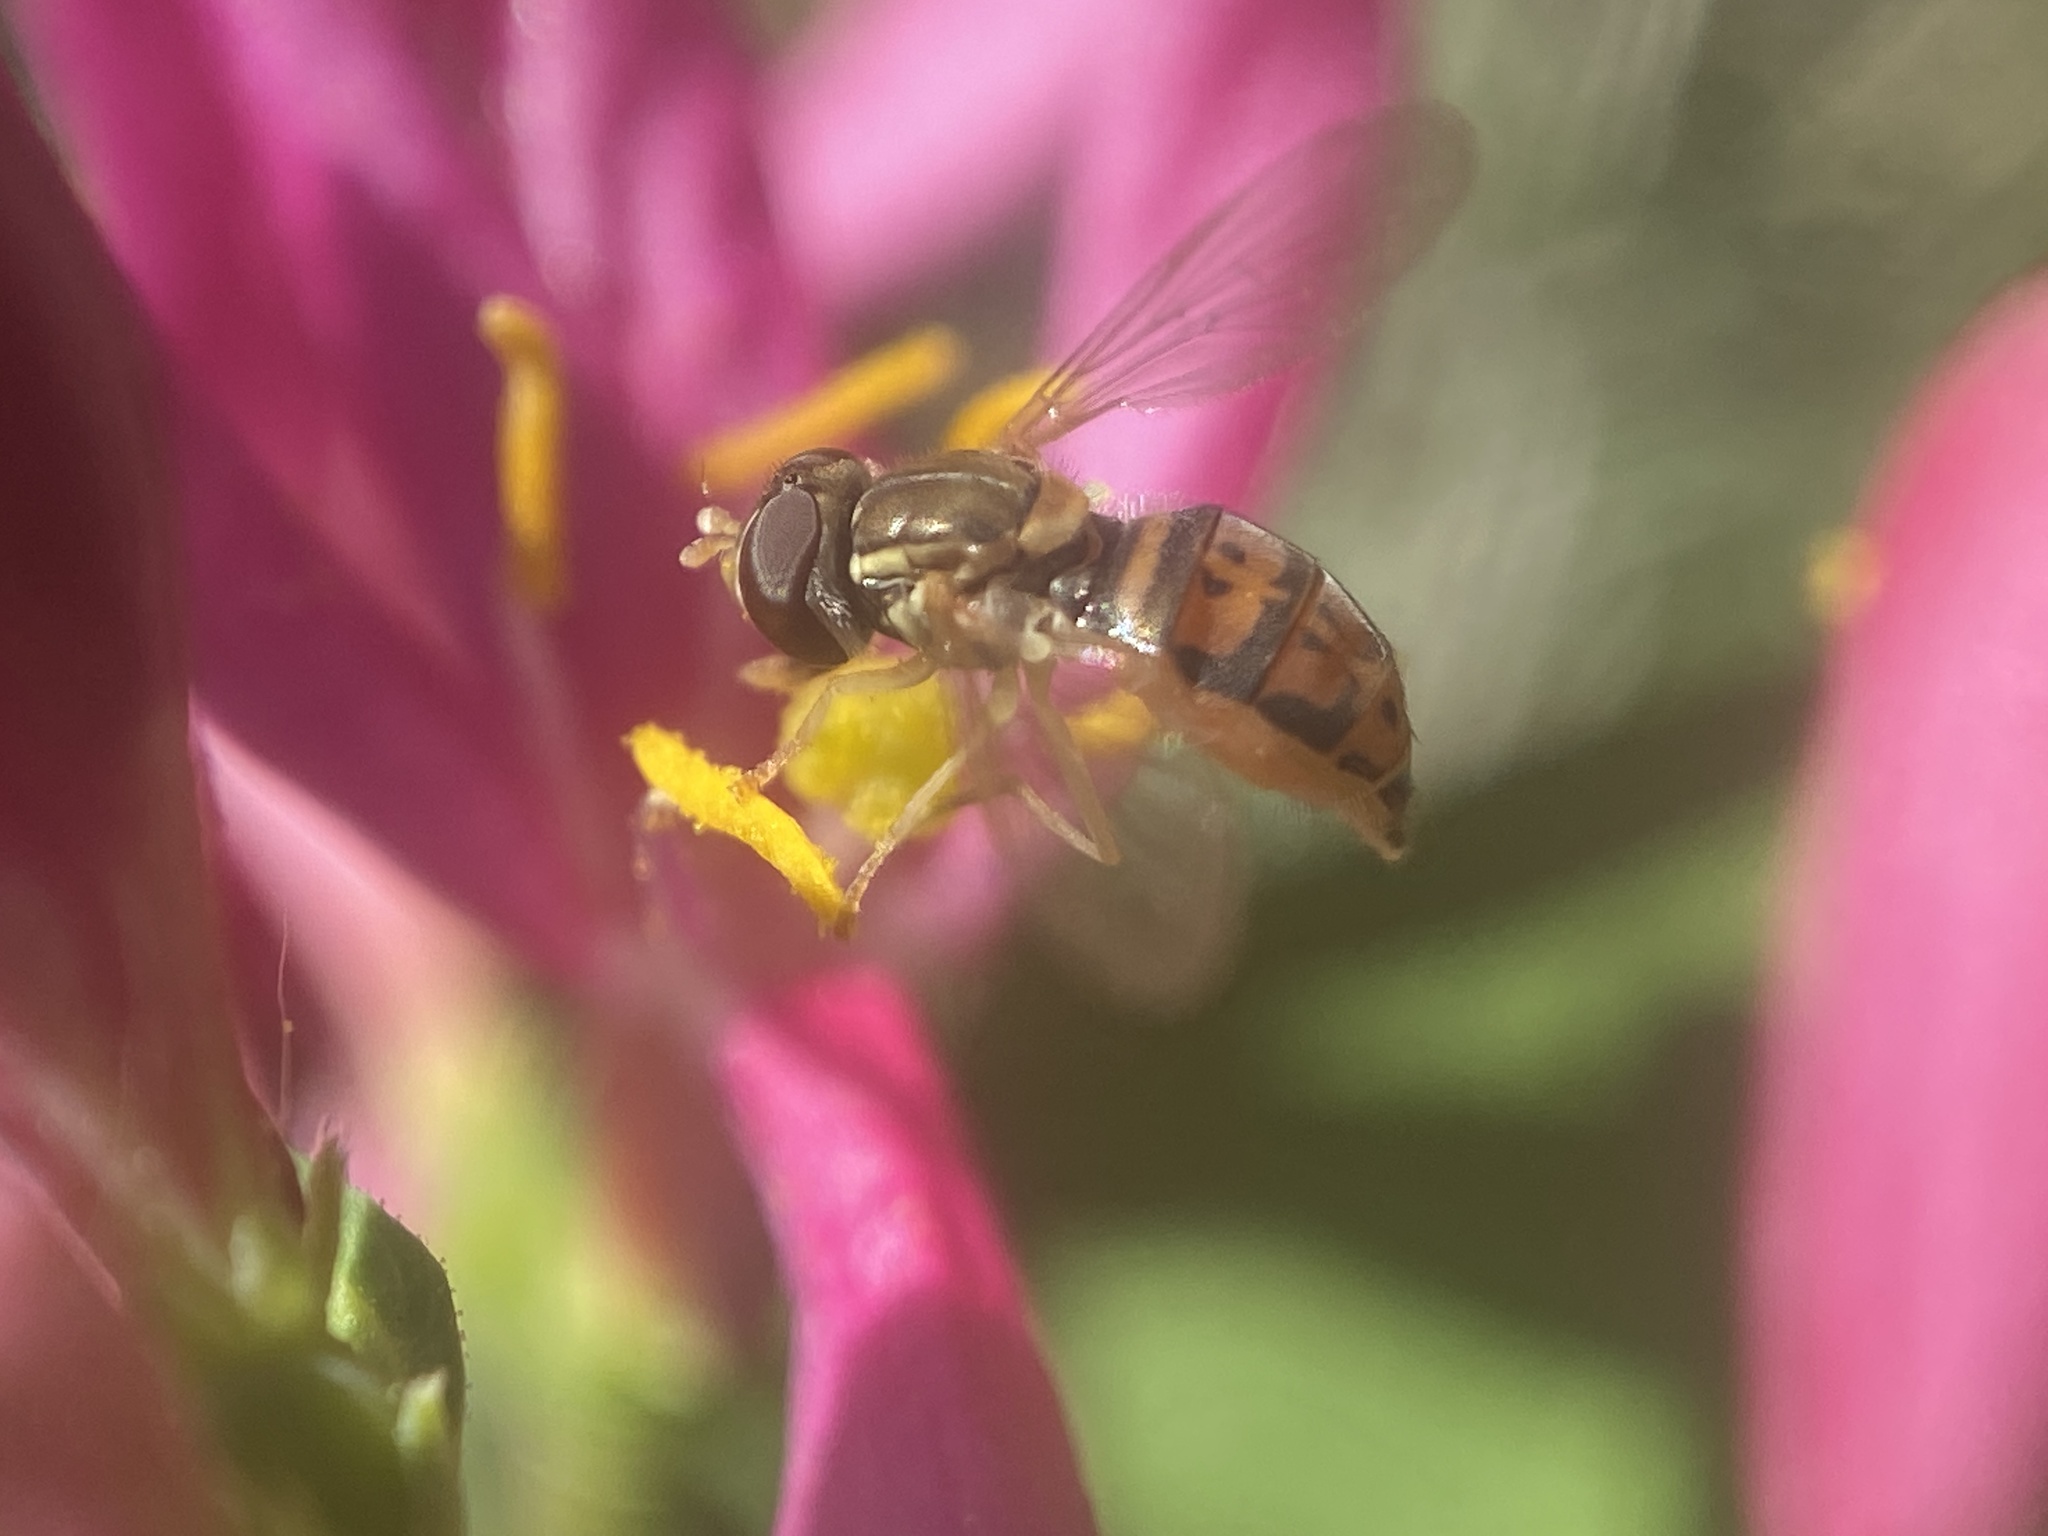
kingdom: Animalia
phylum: Arthropoda
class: Insecta
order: Diptera
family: Syrphidae
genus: Toxomerus
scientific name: Toxomerus marginatus
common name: Syrphid fly
